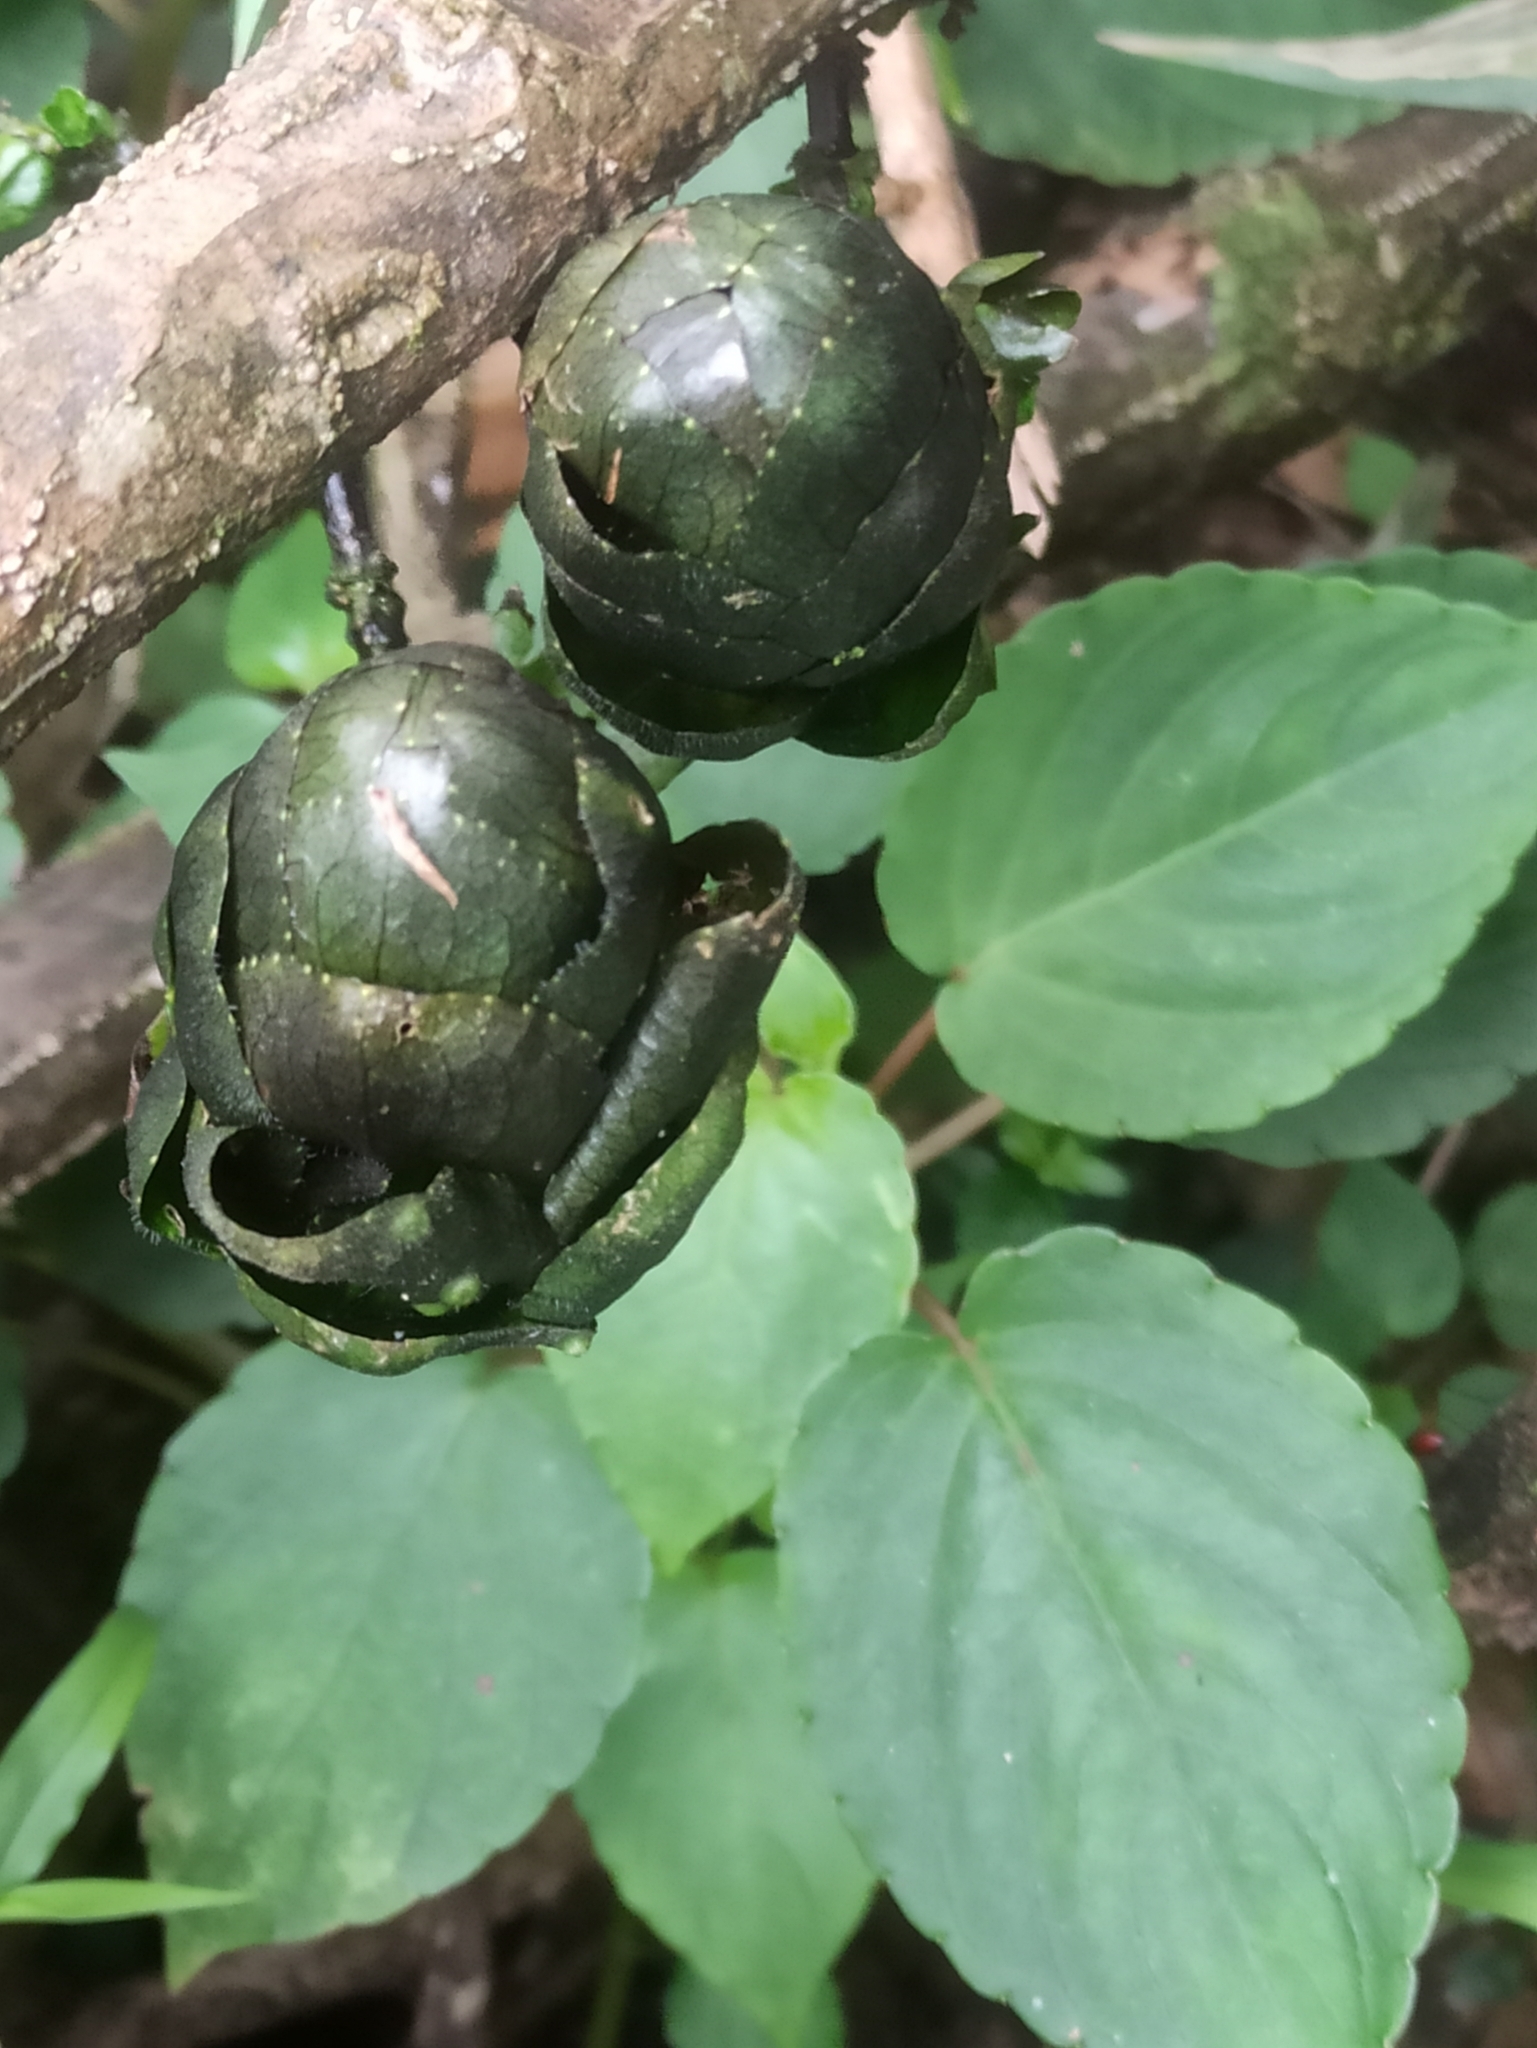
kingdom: Plantae
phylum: Tracheophyta
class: Magnoliopsida
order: Lamiales
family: Acanthaceae
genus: Strobilanthes
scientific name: Strobilanthes lurida
